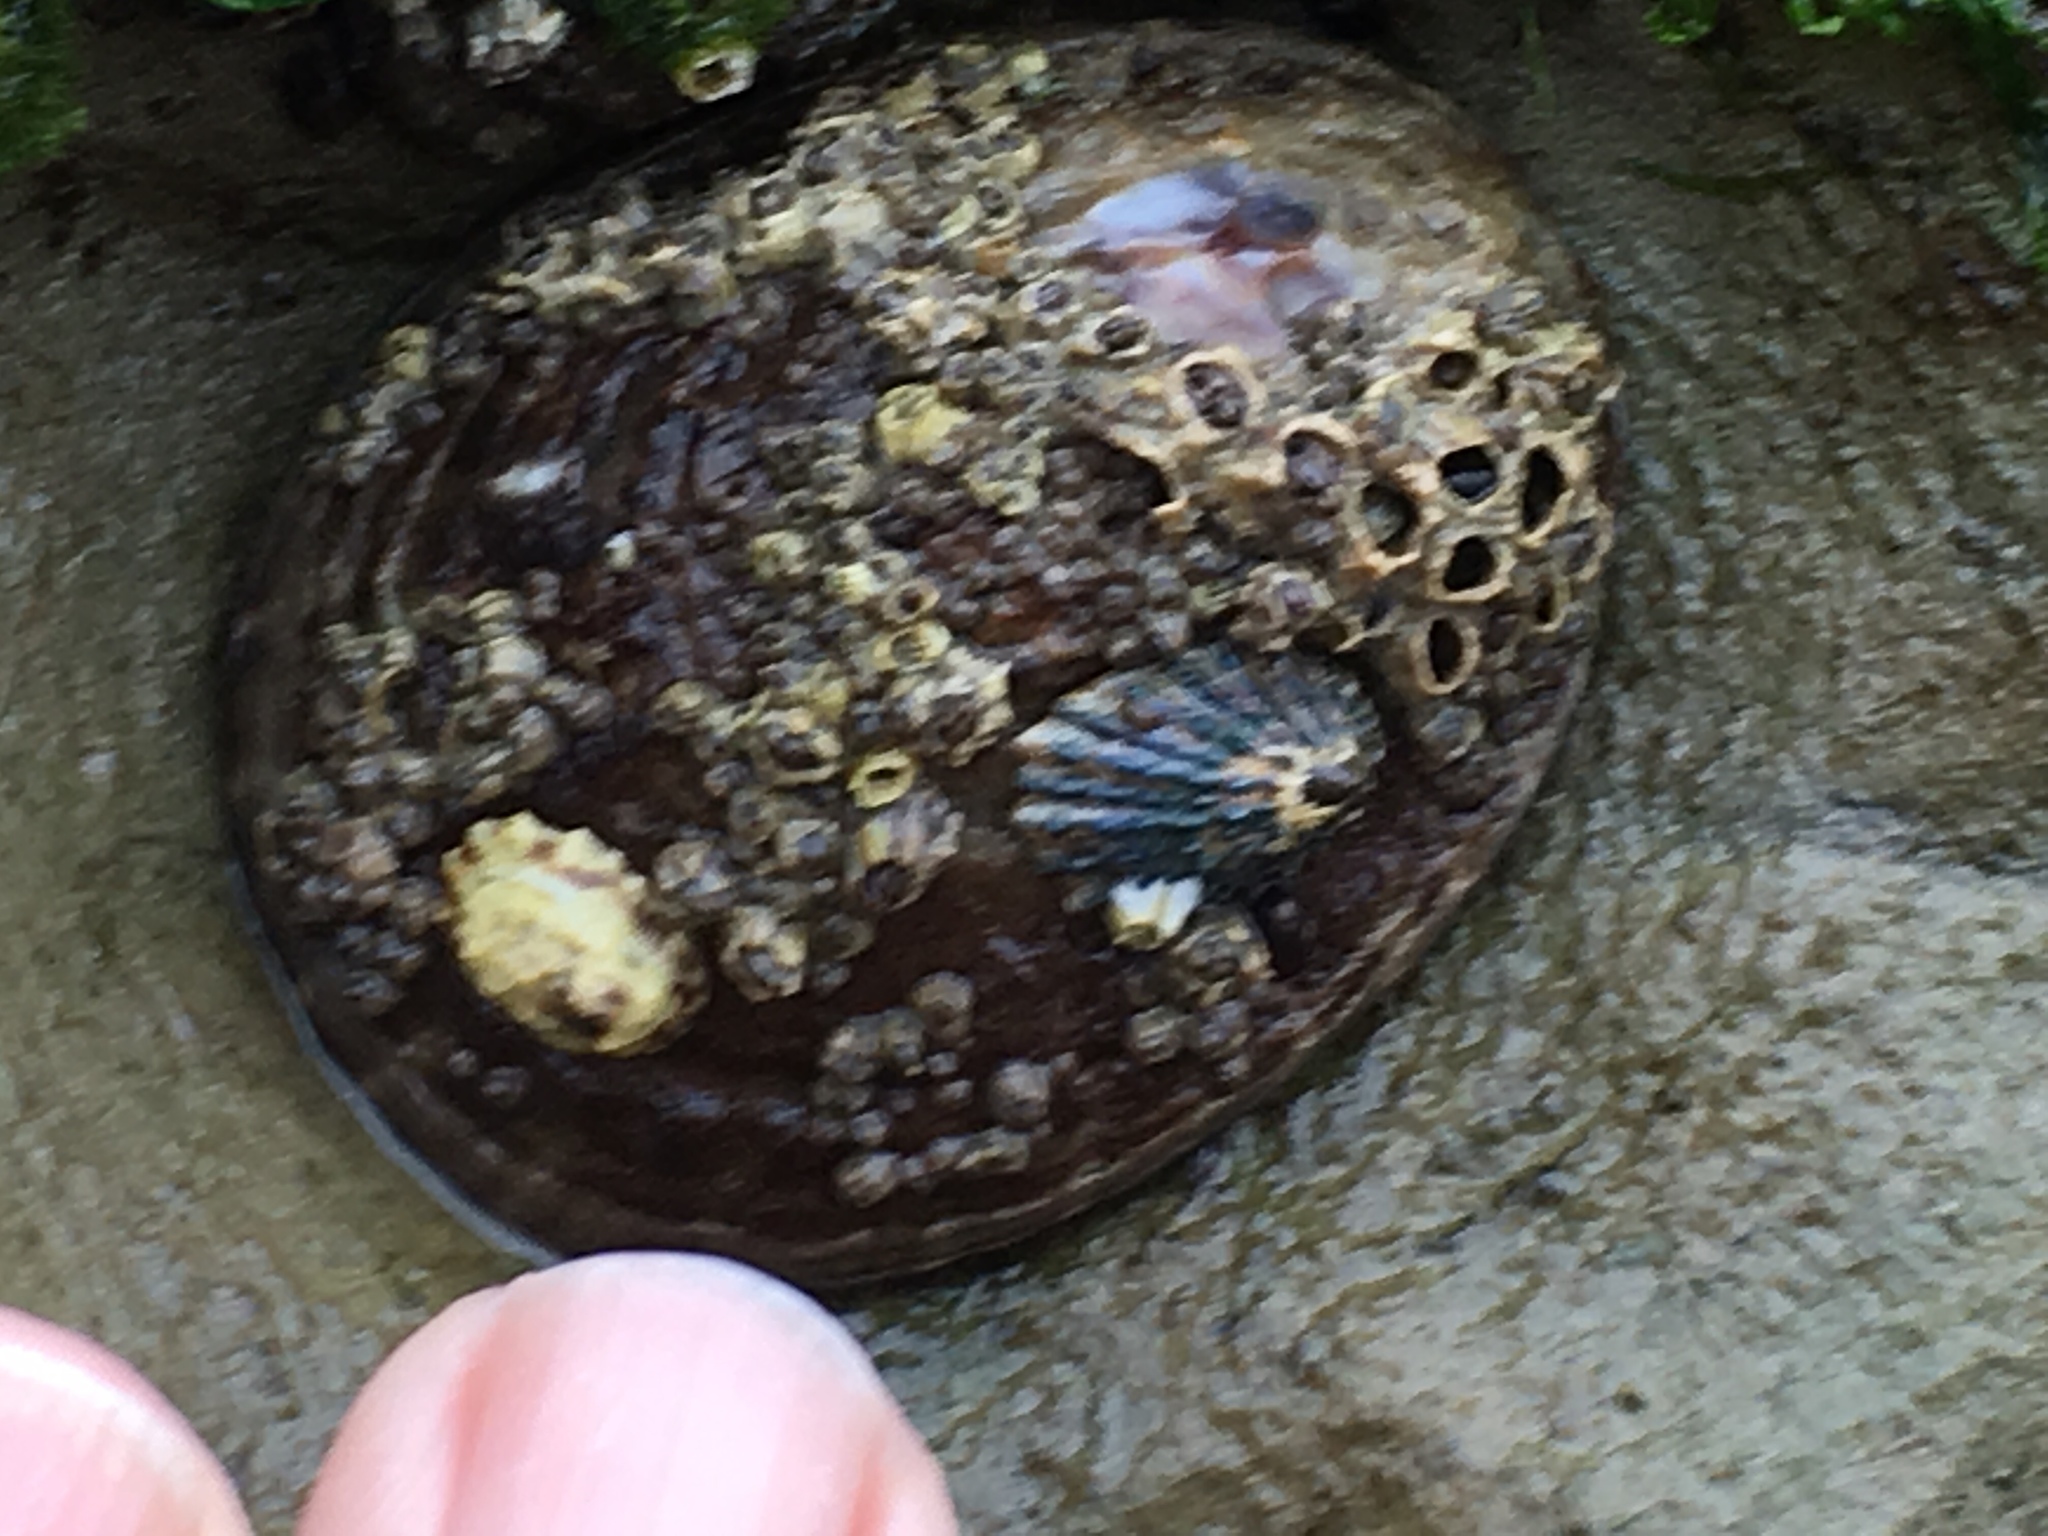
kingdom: Animalia
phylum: Mollusca
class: Gastropoda
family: Lottiidae
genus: Lottia
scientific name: Lottia gigantea
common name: Owl limpet
